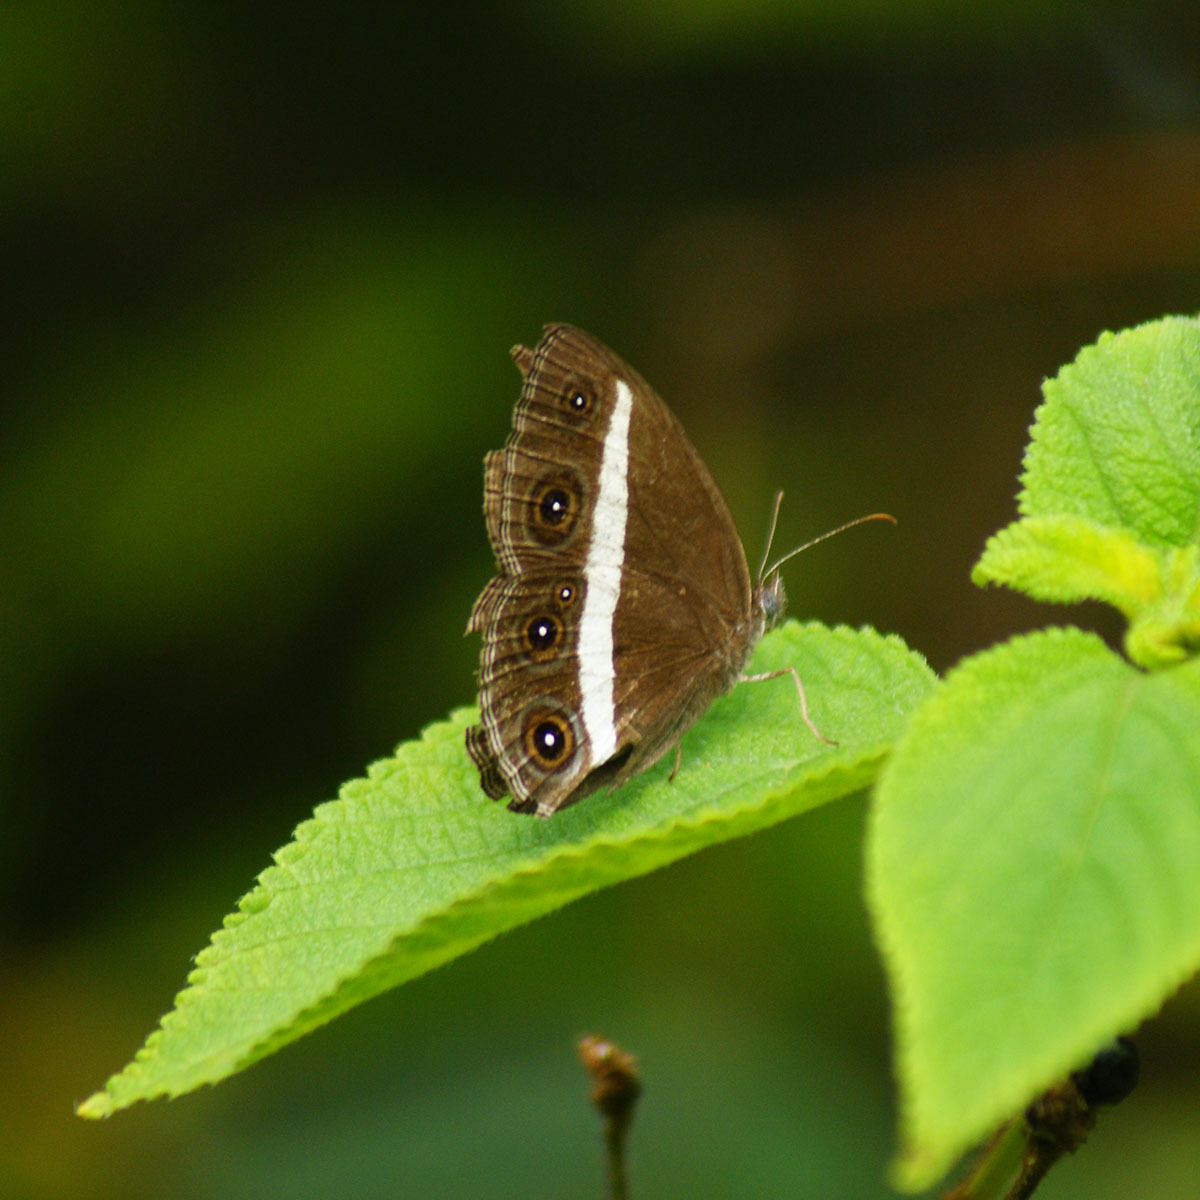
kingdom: Animalia
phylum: Arthropoda
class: Insecta
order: Lepidoptera
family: Nymphalidae
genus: Orsotriaena
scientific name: Orsotriaena medus
